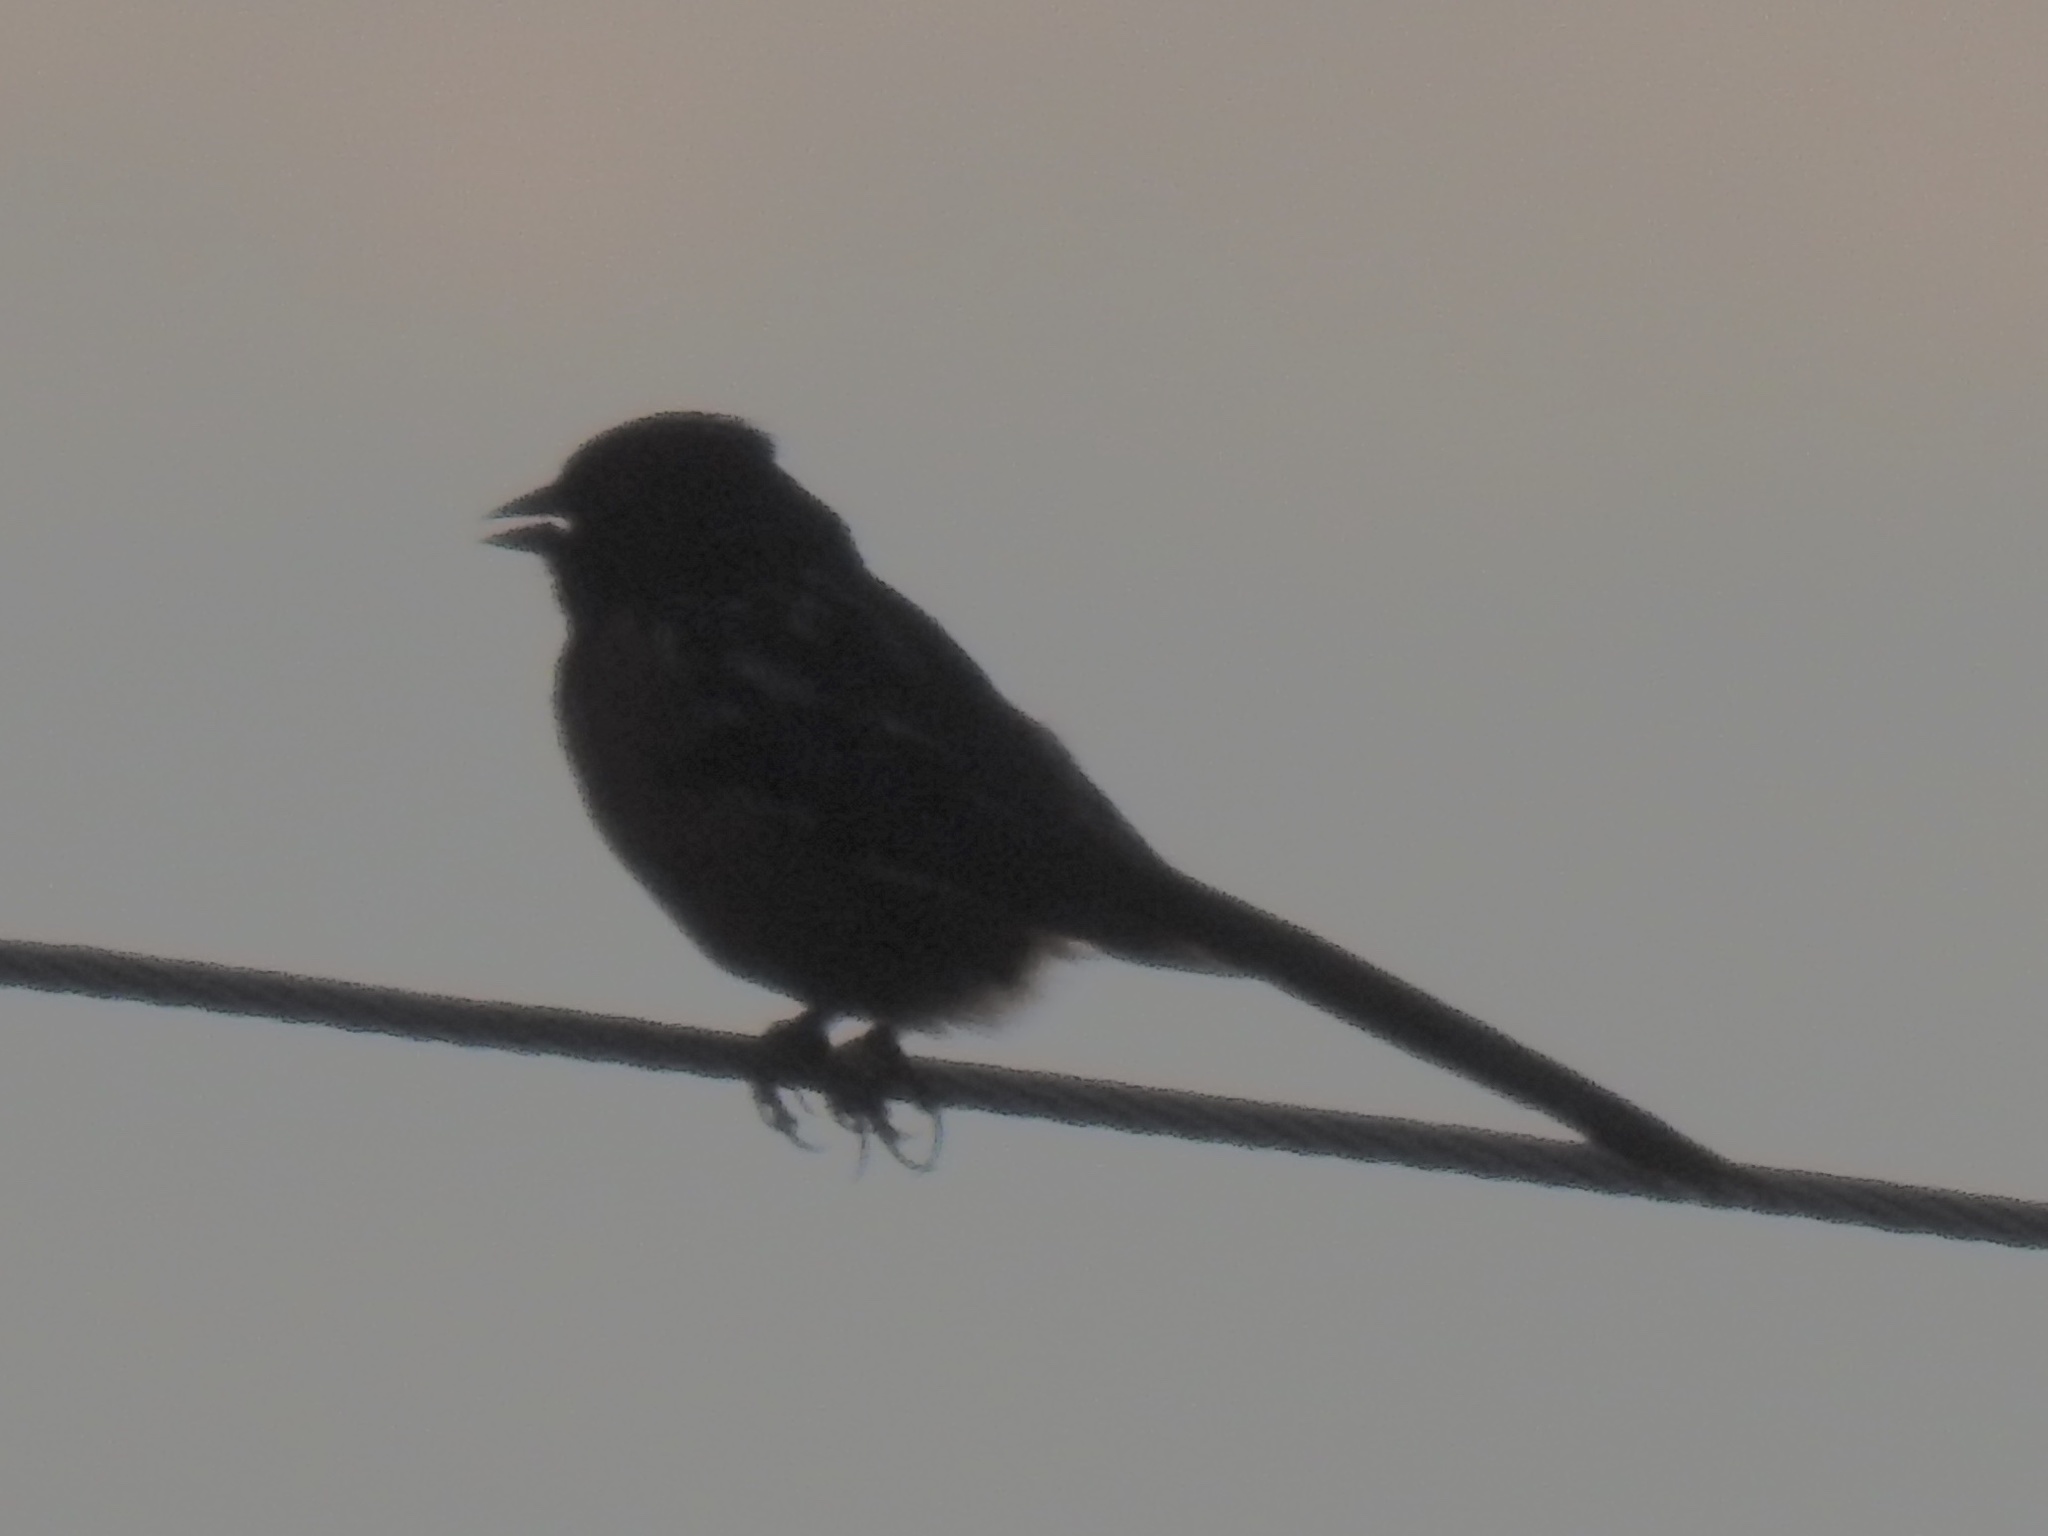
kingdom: Animalia
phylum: Chordata
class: Aves
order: Passeriformes
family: Passerellidae
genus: Pipilo
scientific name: Pipilo maculatus
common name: Spotted towhee
